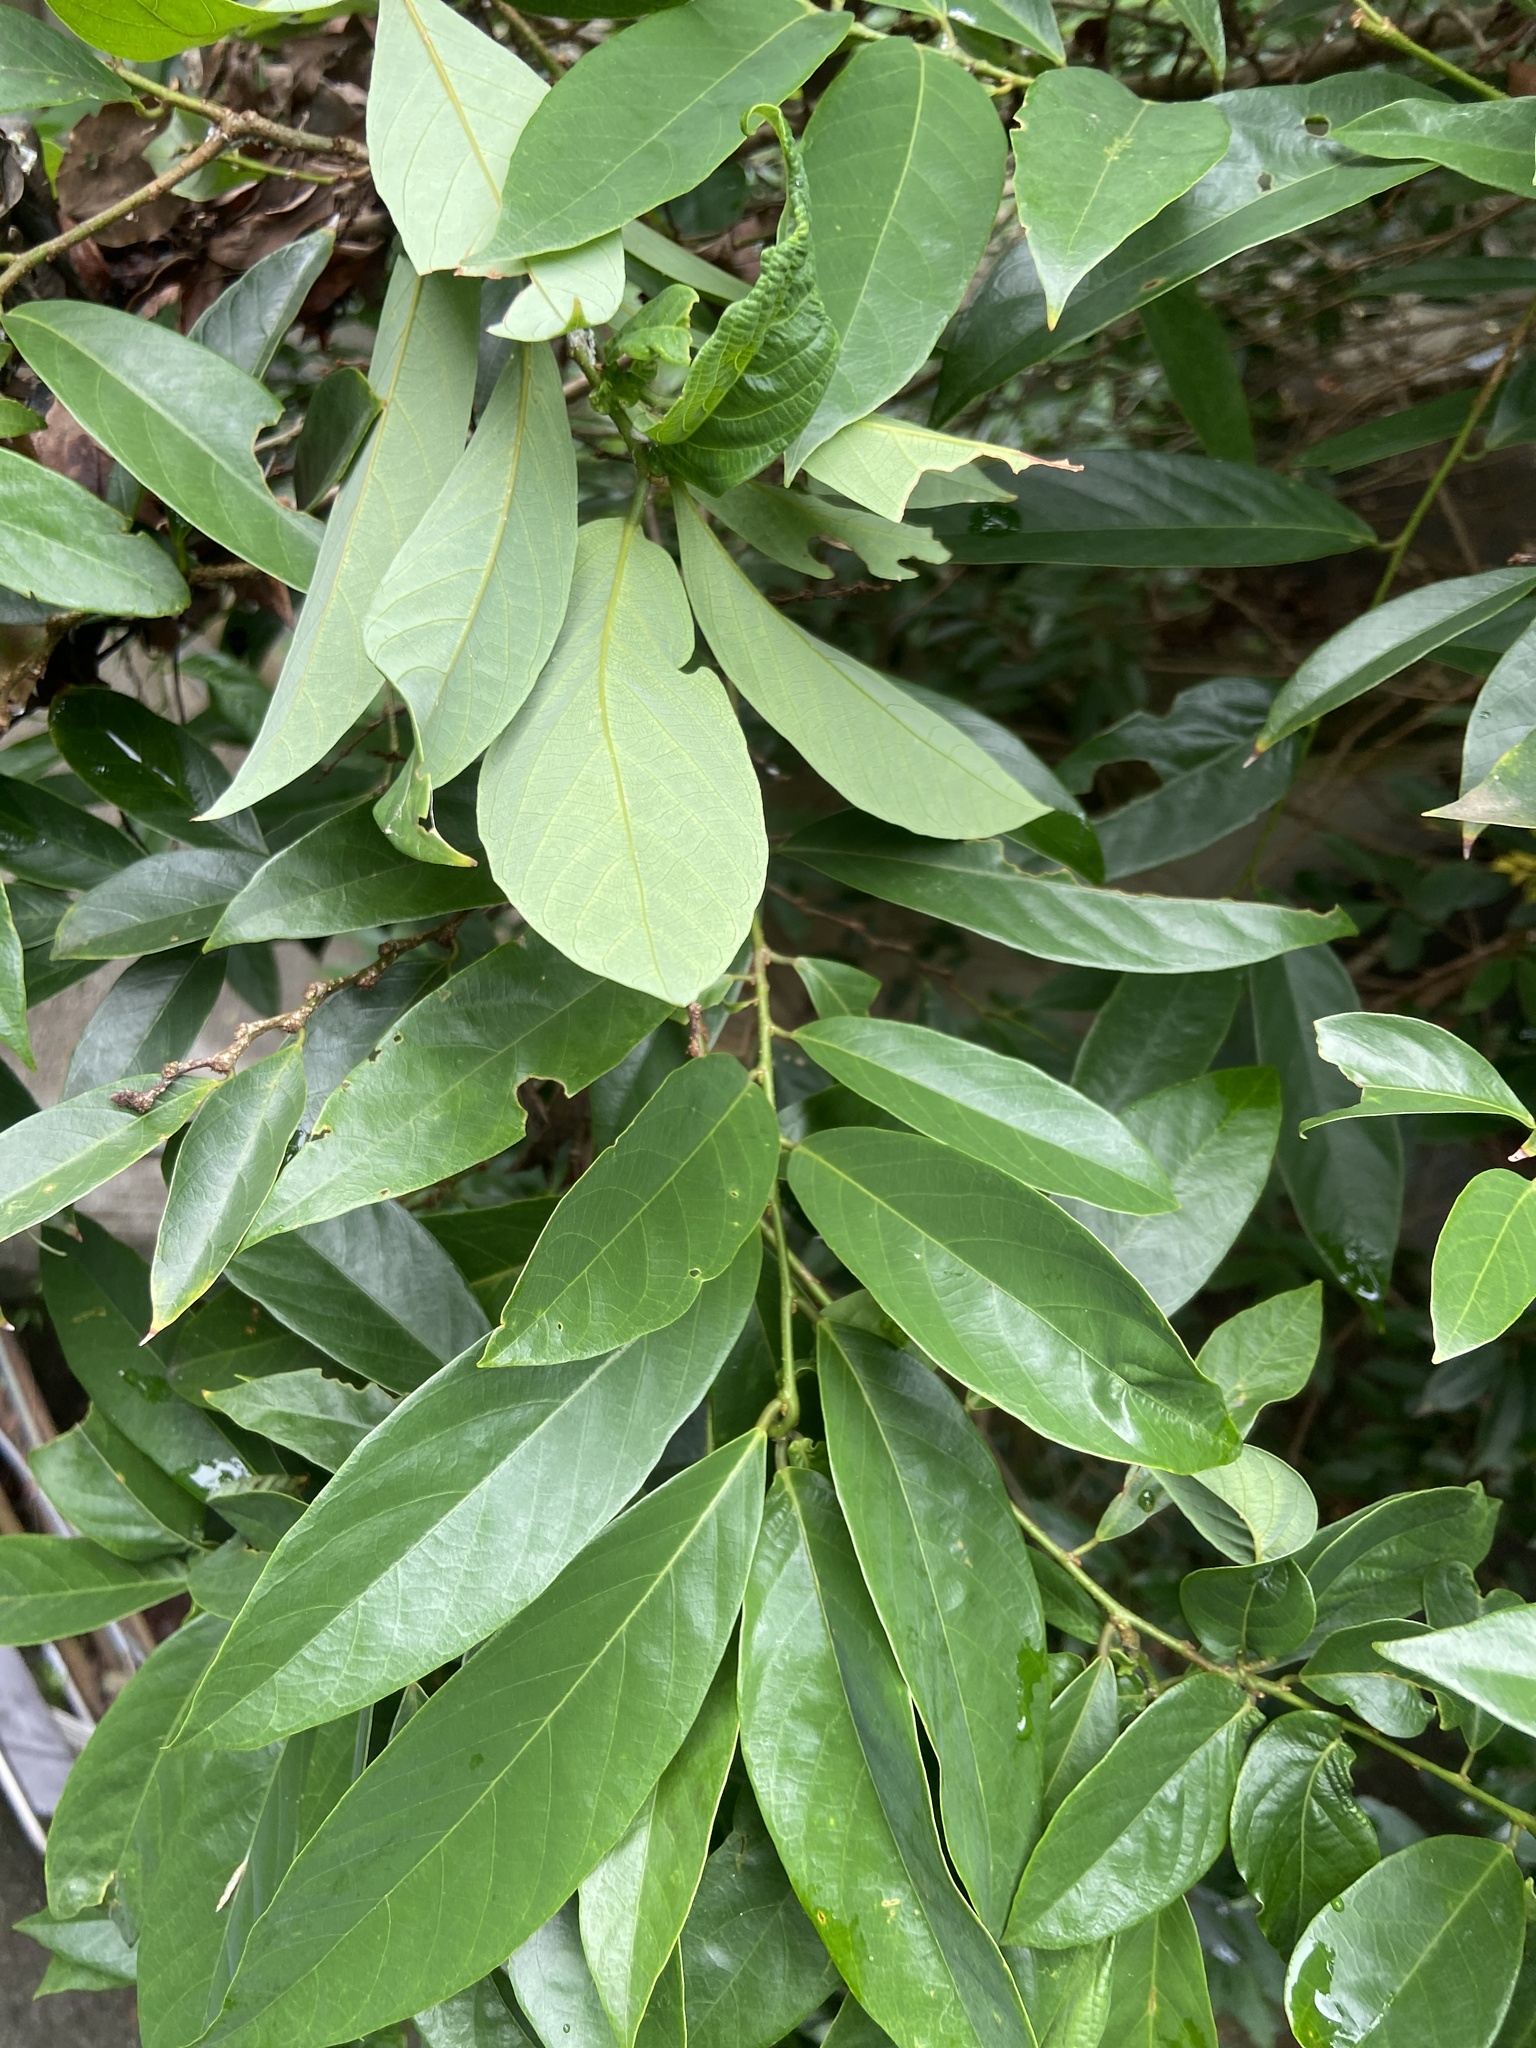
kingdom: Plantae
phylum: Tracheophyta
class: Magnoliopsida
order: Malpighiales
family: Phyllanthaceae
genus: Bridelia
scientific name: Bridelia balansae
